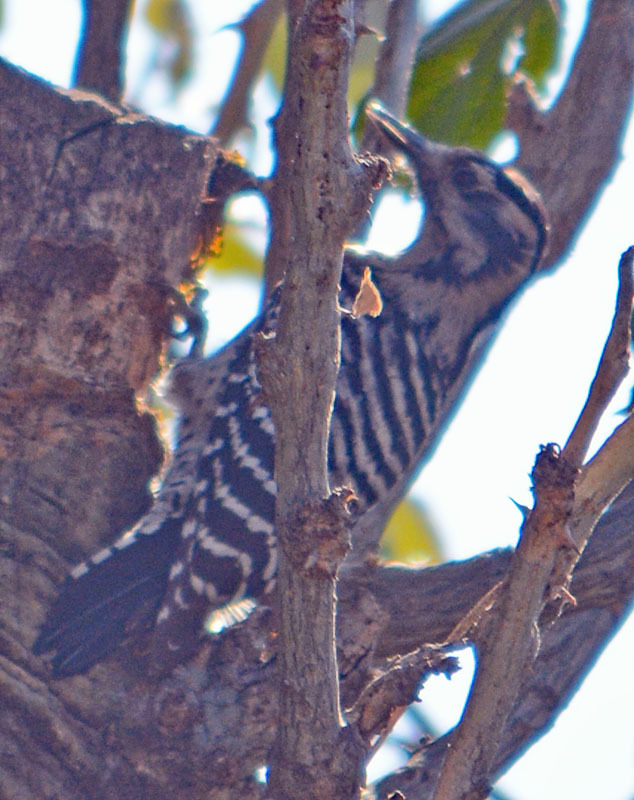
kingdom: Animalia
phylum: Chordata
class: Aves
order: Piciformes
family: Picidae
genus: Dryobates
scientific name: Dryobates scalaris
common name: Ladder-backed woodpecker
